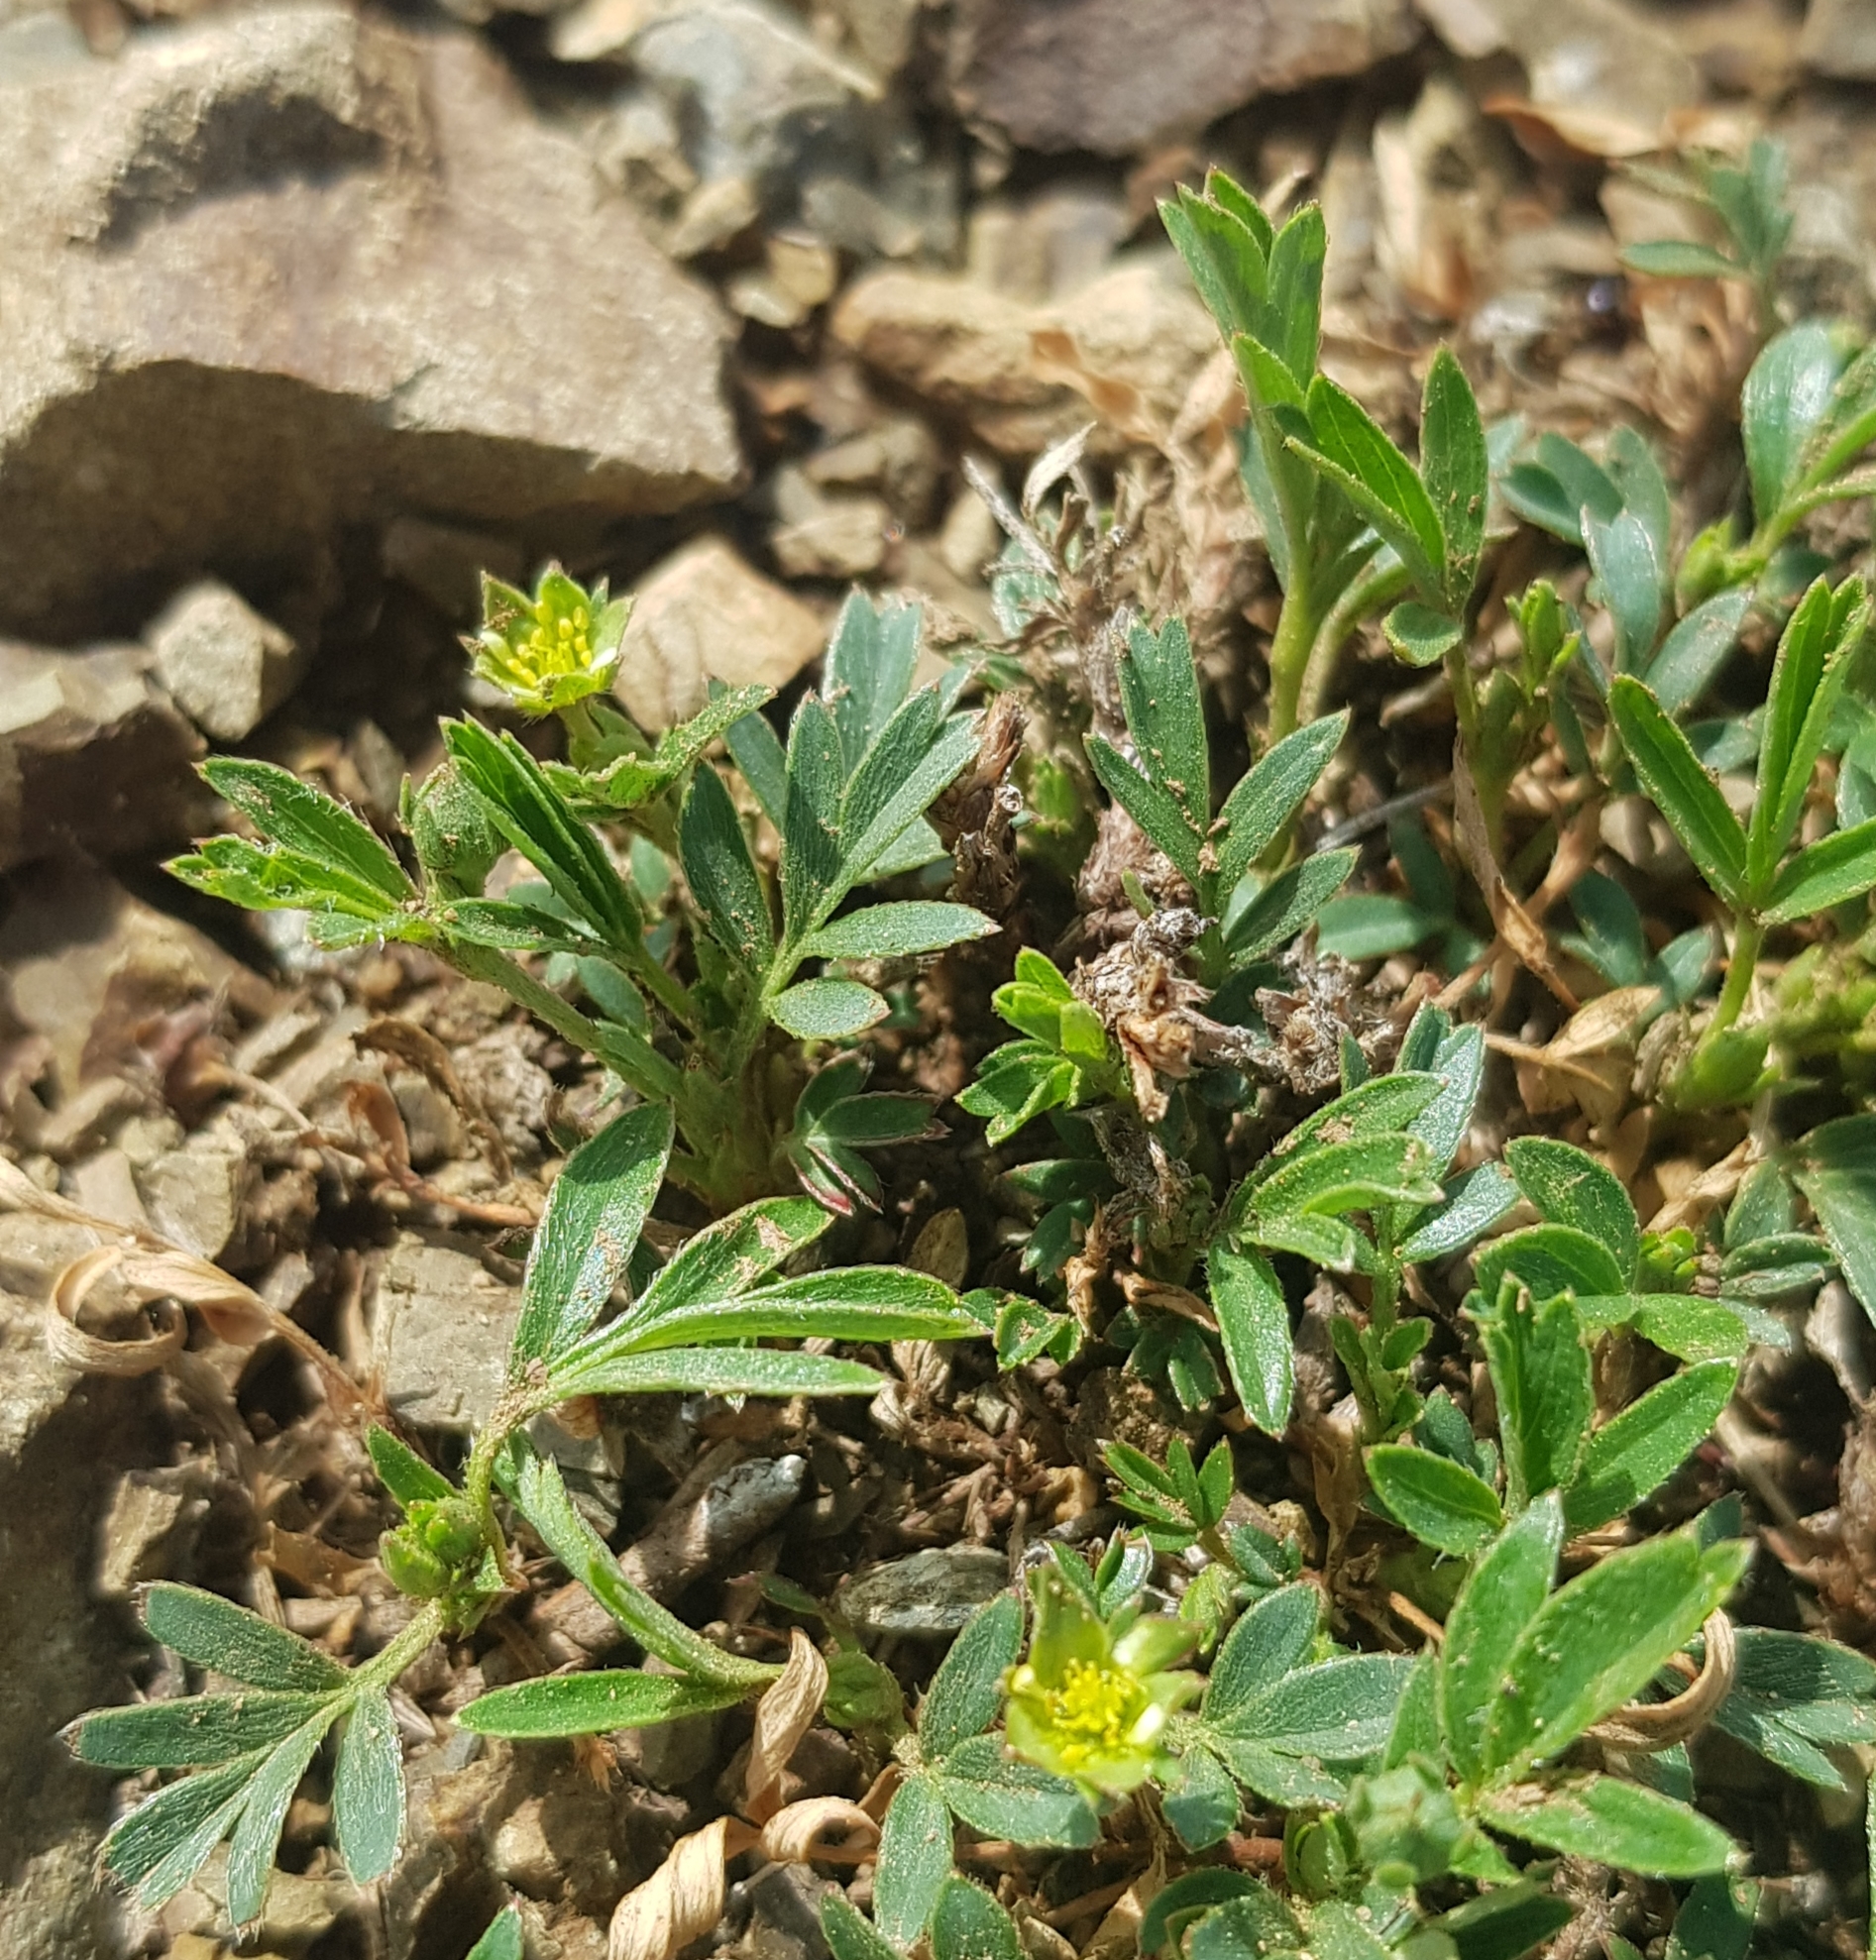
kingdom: Plantae
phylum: Tracheophyta
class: Magnoliopsida
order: Rosales
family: Rosaceae
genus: Sibbaldianthe
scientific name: Sibbaldianthe adpressa
